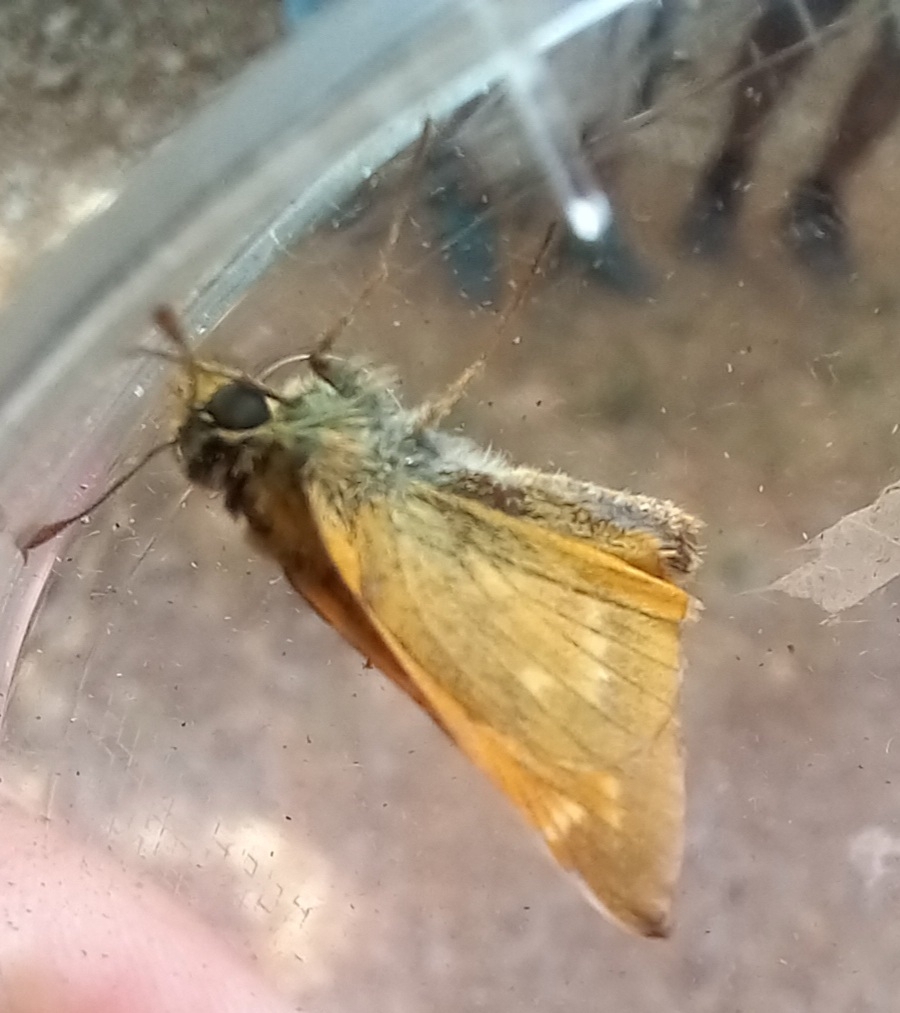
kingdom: Animalia
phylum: Arthropoda
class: Insecta
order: Lepidoptera
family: Hesperiidae
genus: Ochlodes
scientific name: Ochlodes venata
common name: Large skipper
